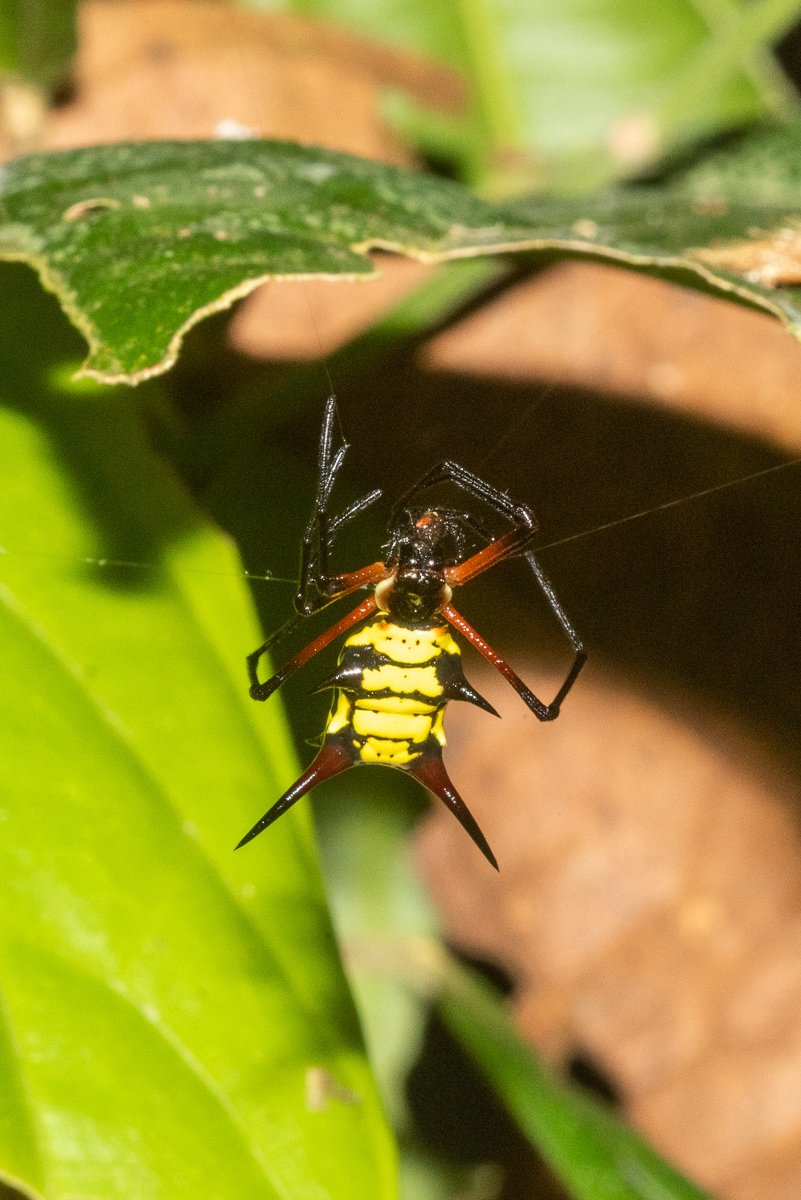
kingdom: Animalia
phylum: Arthropoda
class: Arachnida
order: Araneae
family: Araneidae
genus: Micrathena
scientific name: Micrathena kirbyi
